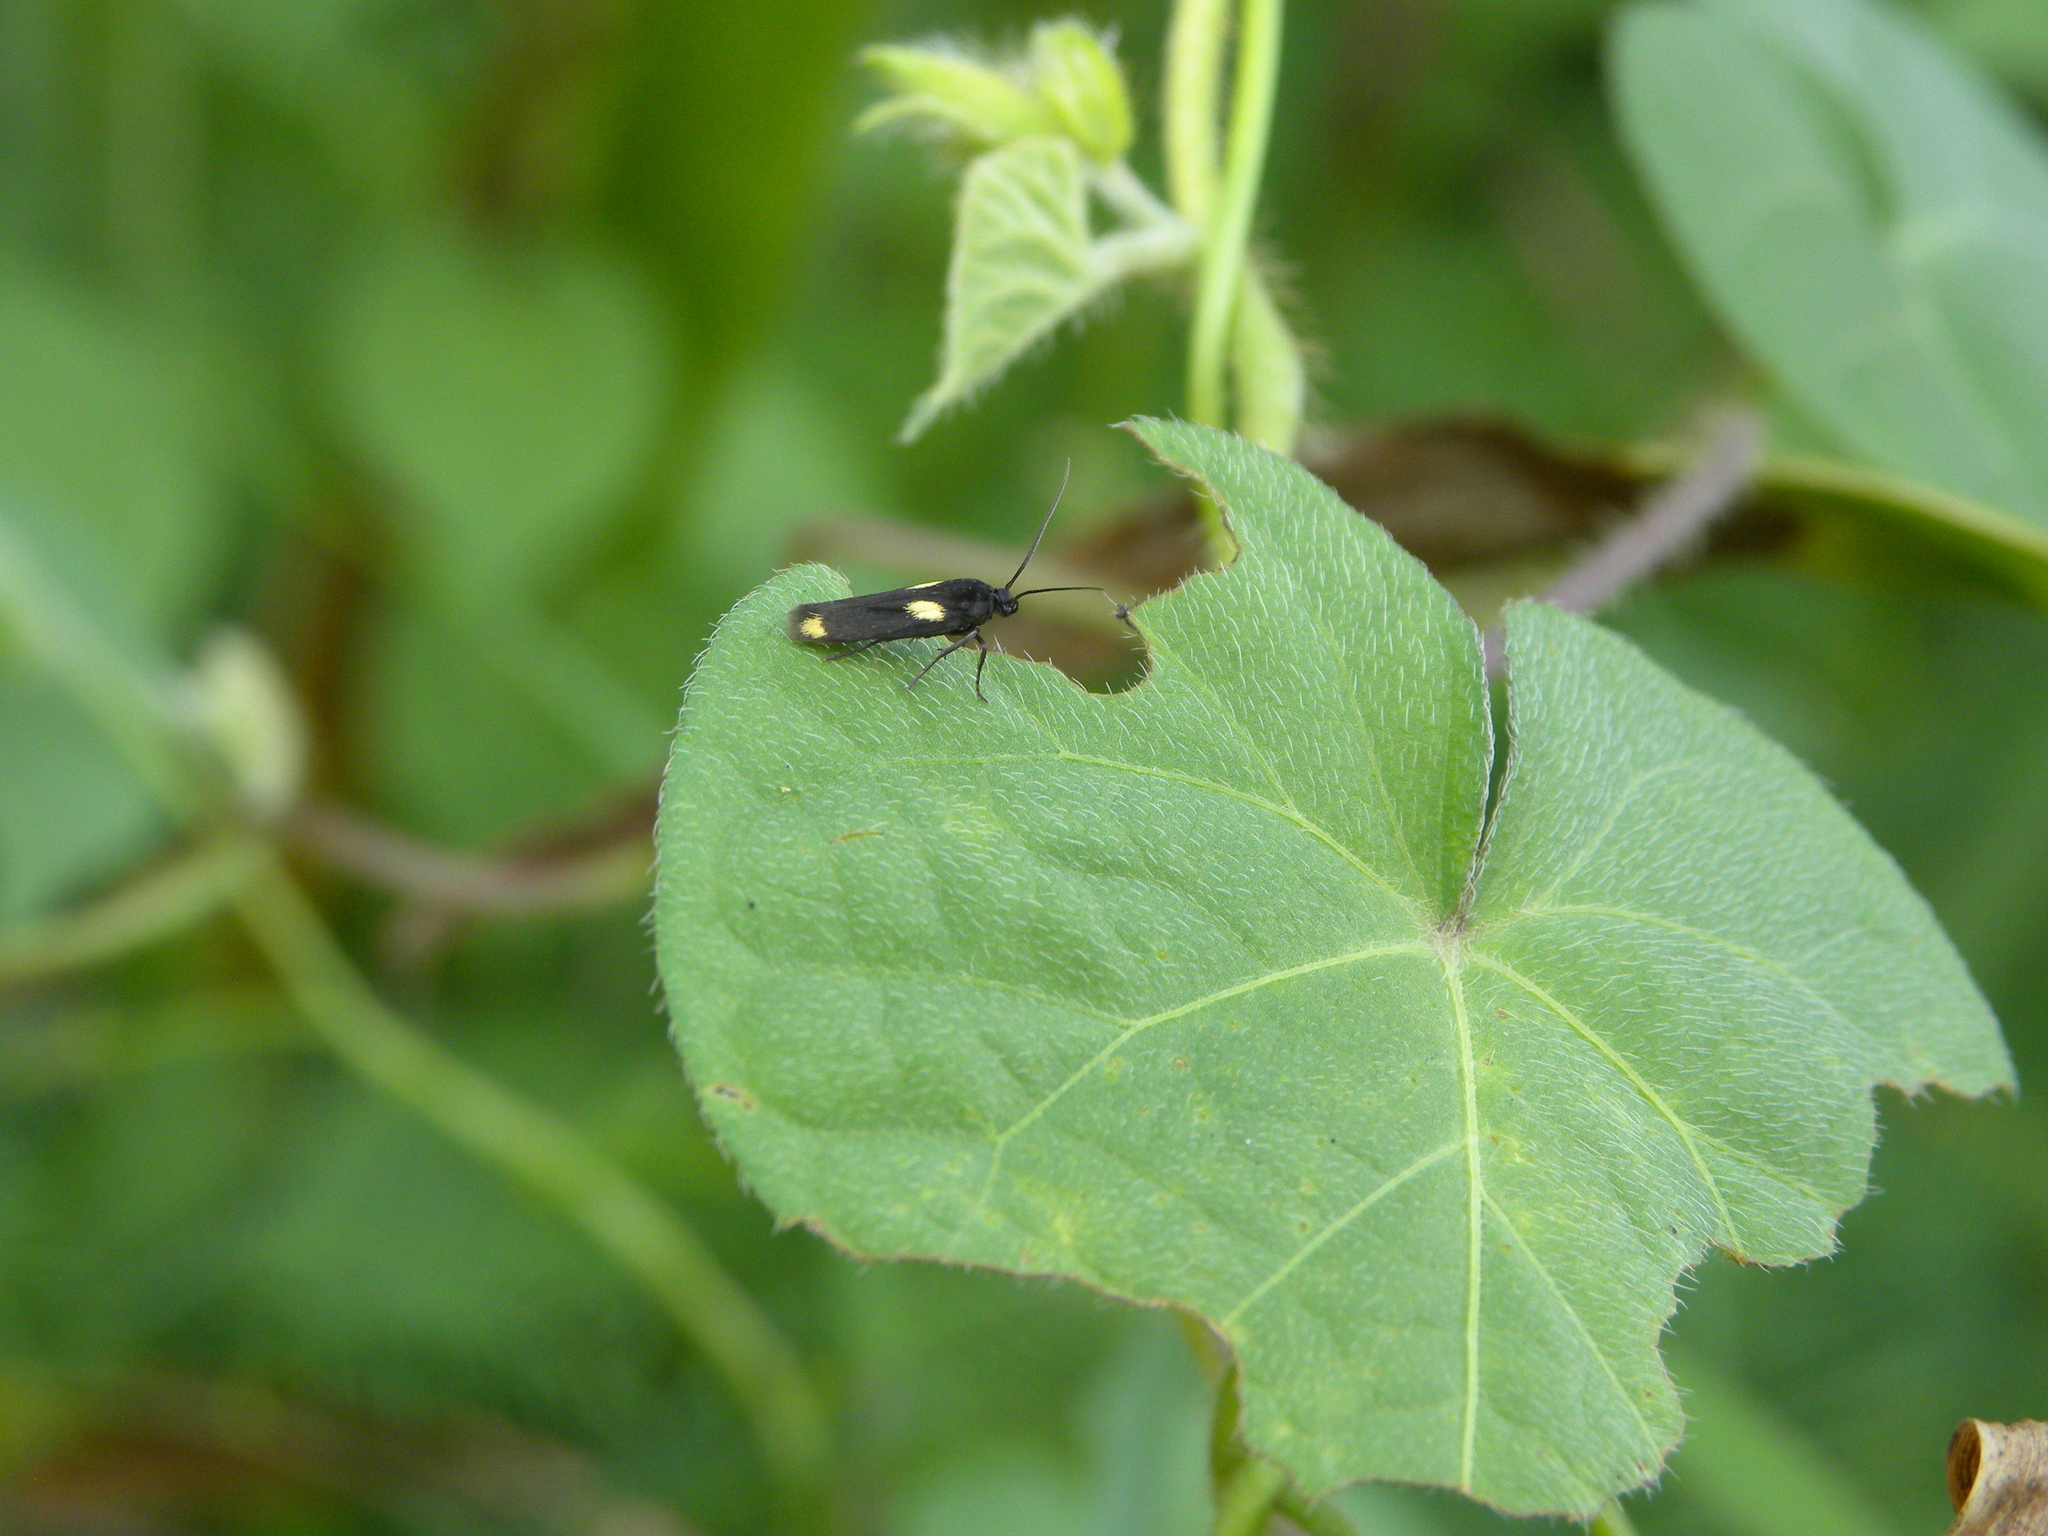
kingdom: Animalia
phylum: Arthropoda
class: Insecta
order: Lepidoptera
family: Scythrididae
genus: Scythris
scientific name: Scythris sinensis
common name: Kentish owlet
